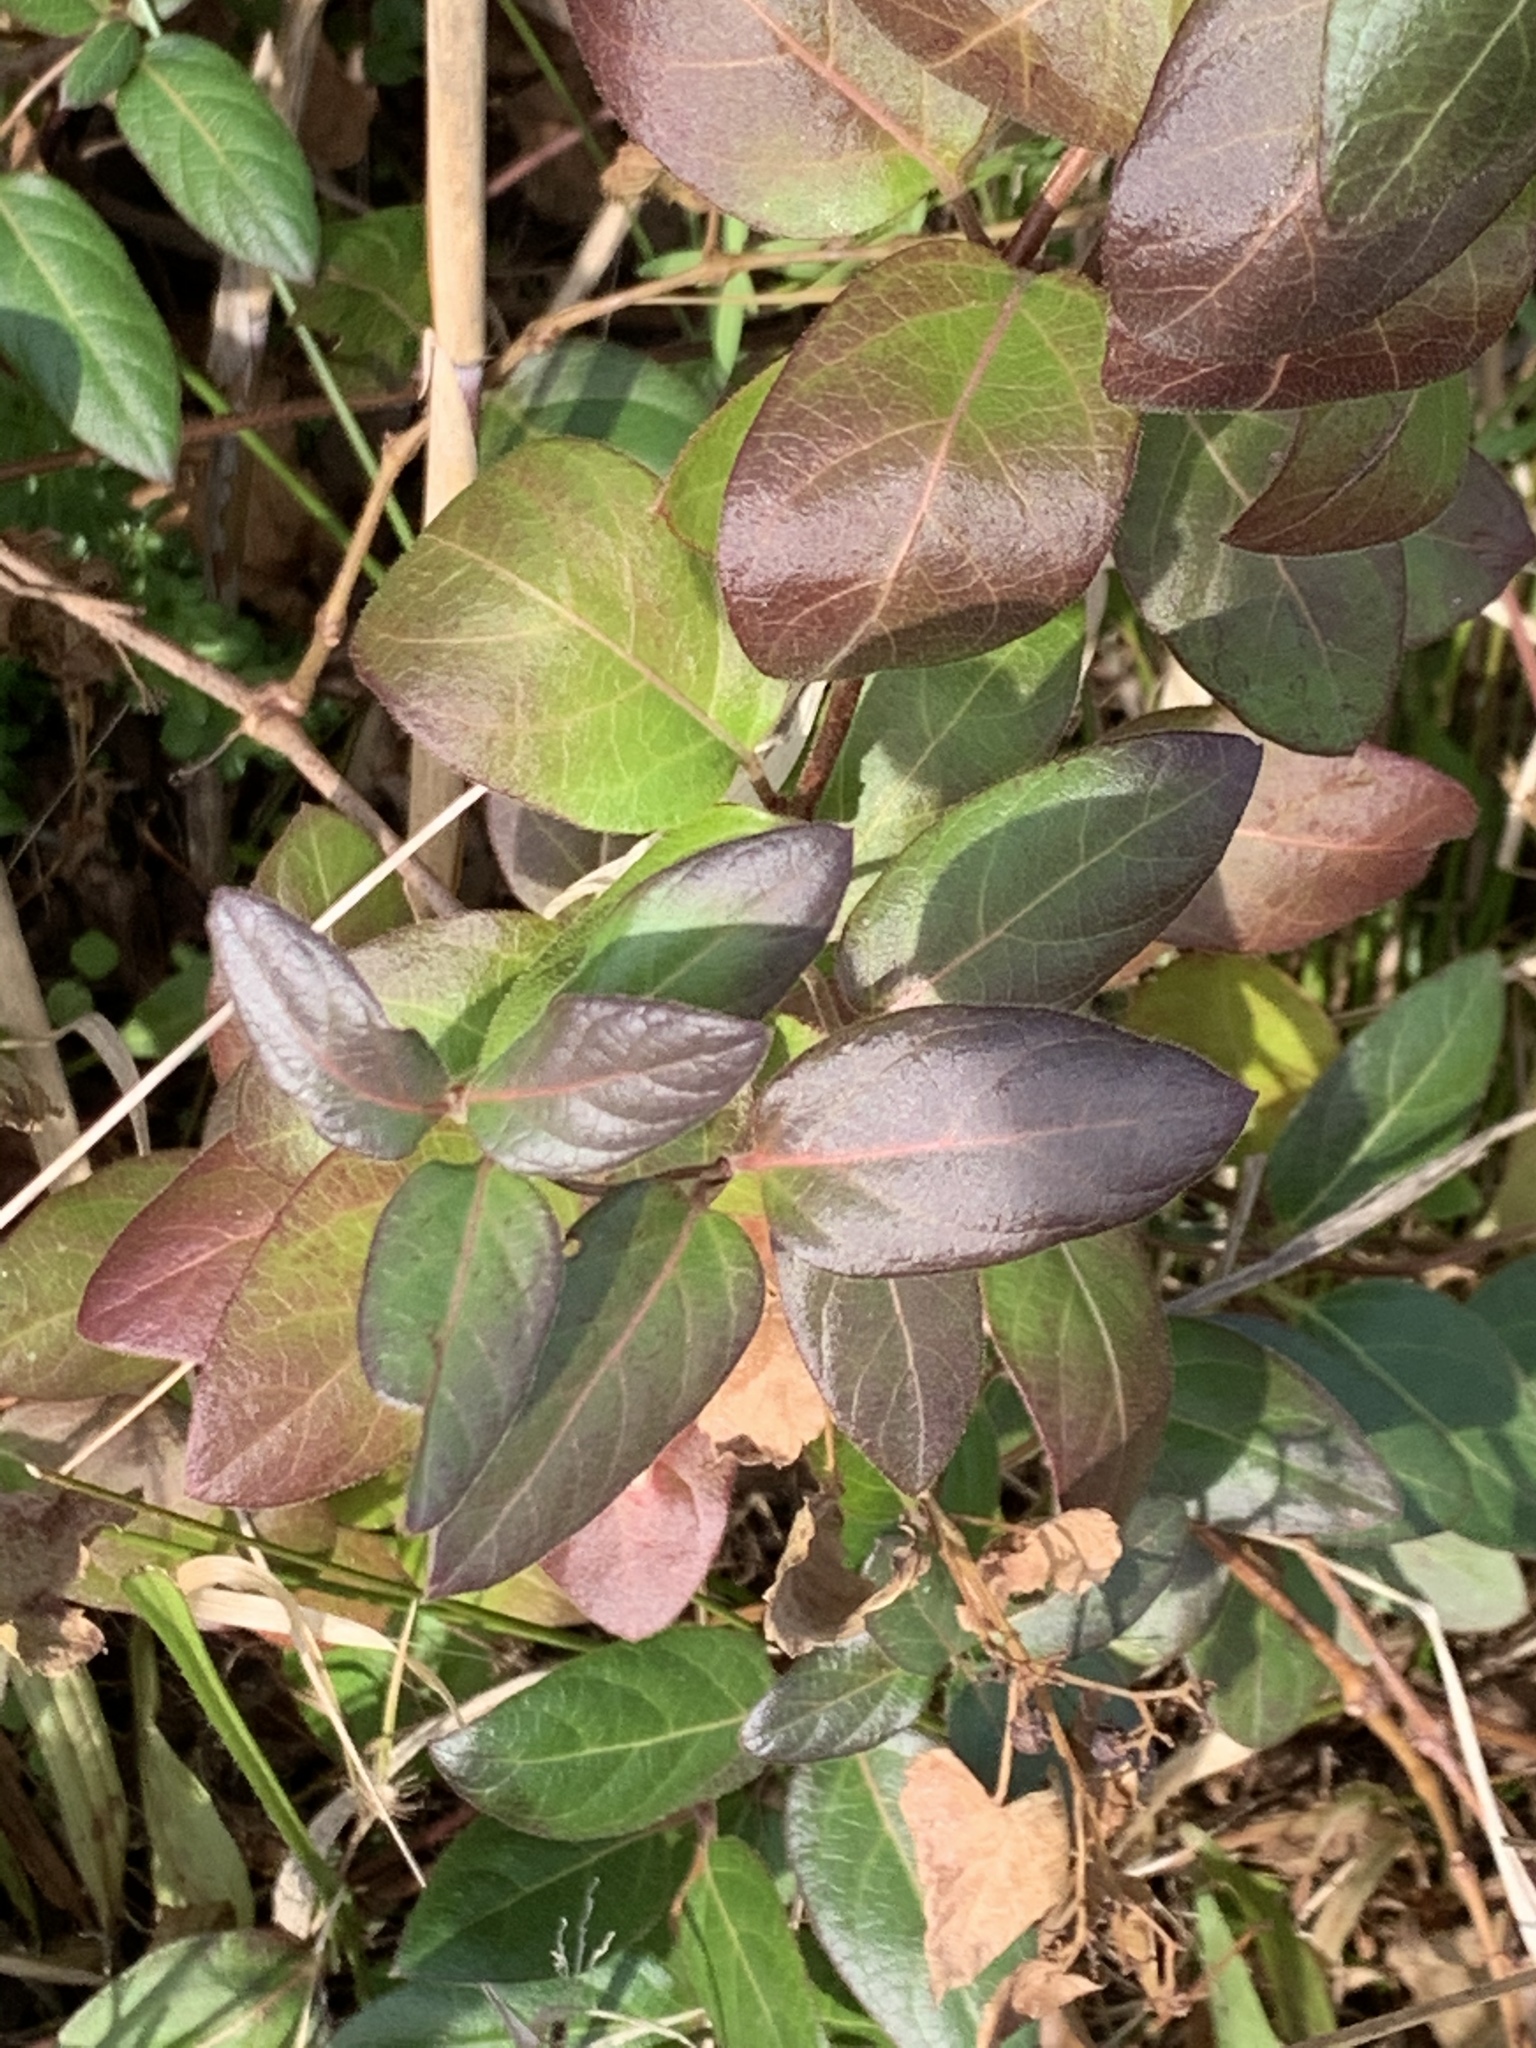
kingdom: Plantae
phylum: Tracheophyta
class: Magnoliopsida
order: Dipsacales
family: Caprifoliaceae
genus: Lonicera
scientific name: Lonicera japonica
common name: Japanese honeysuckle
